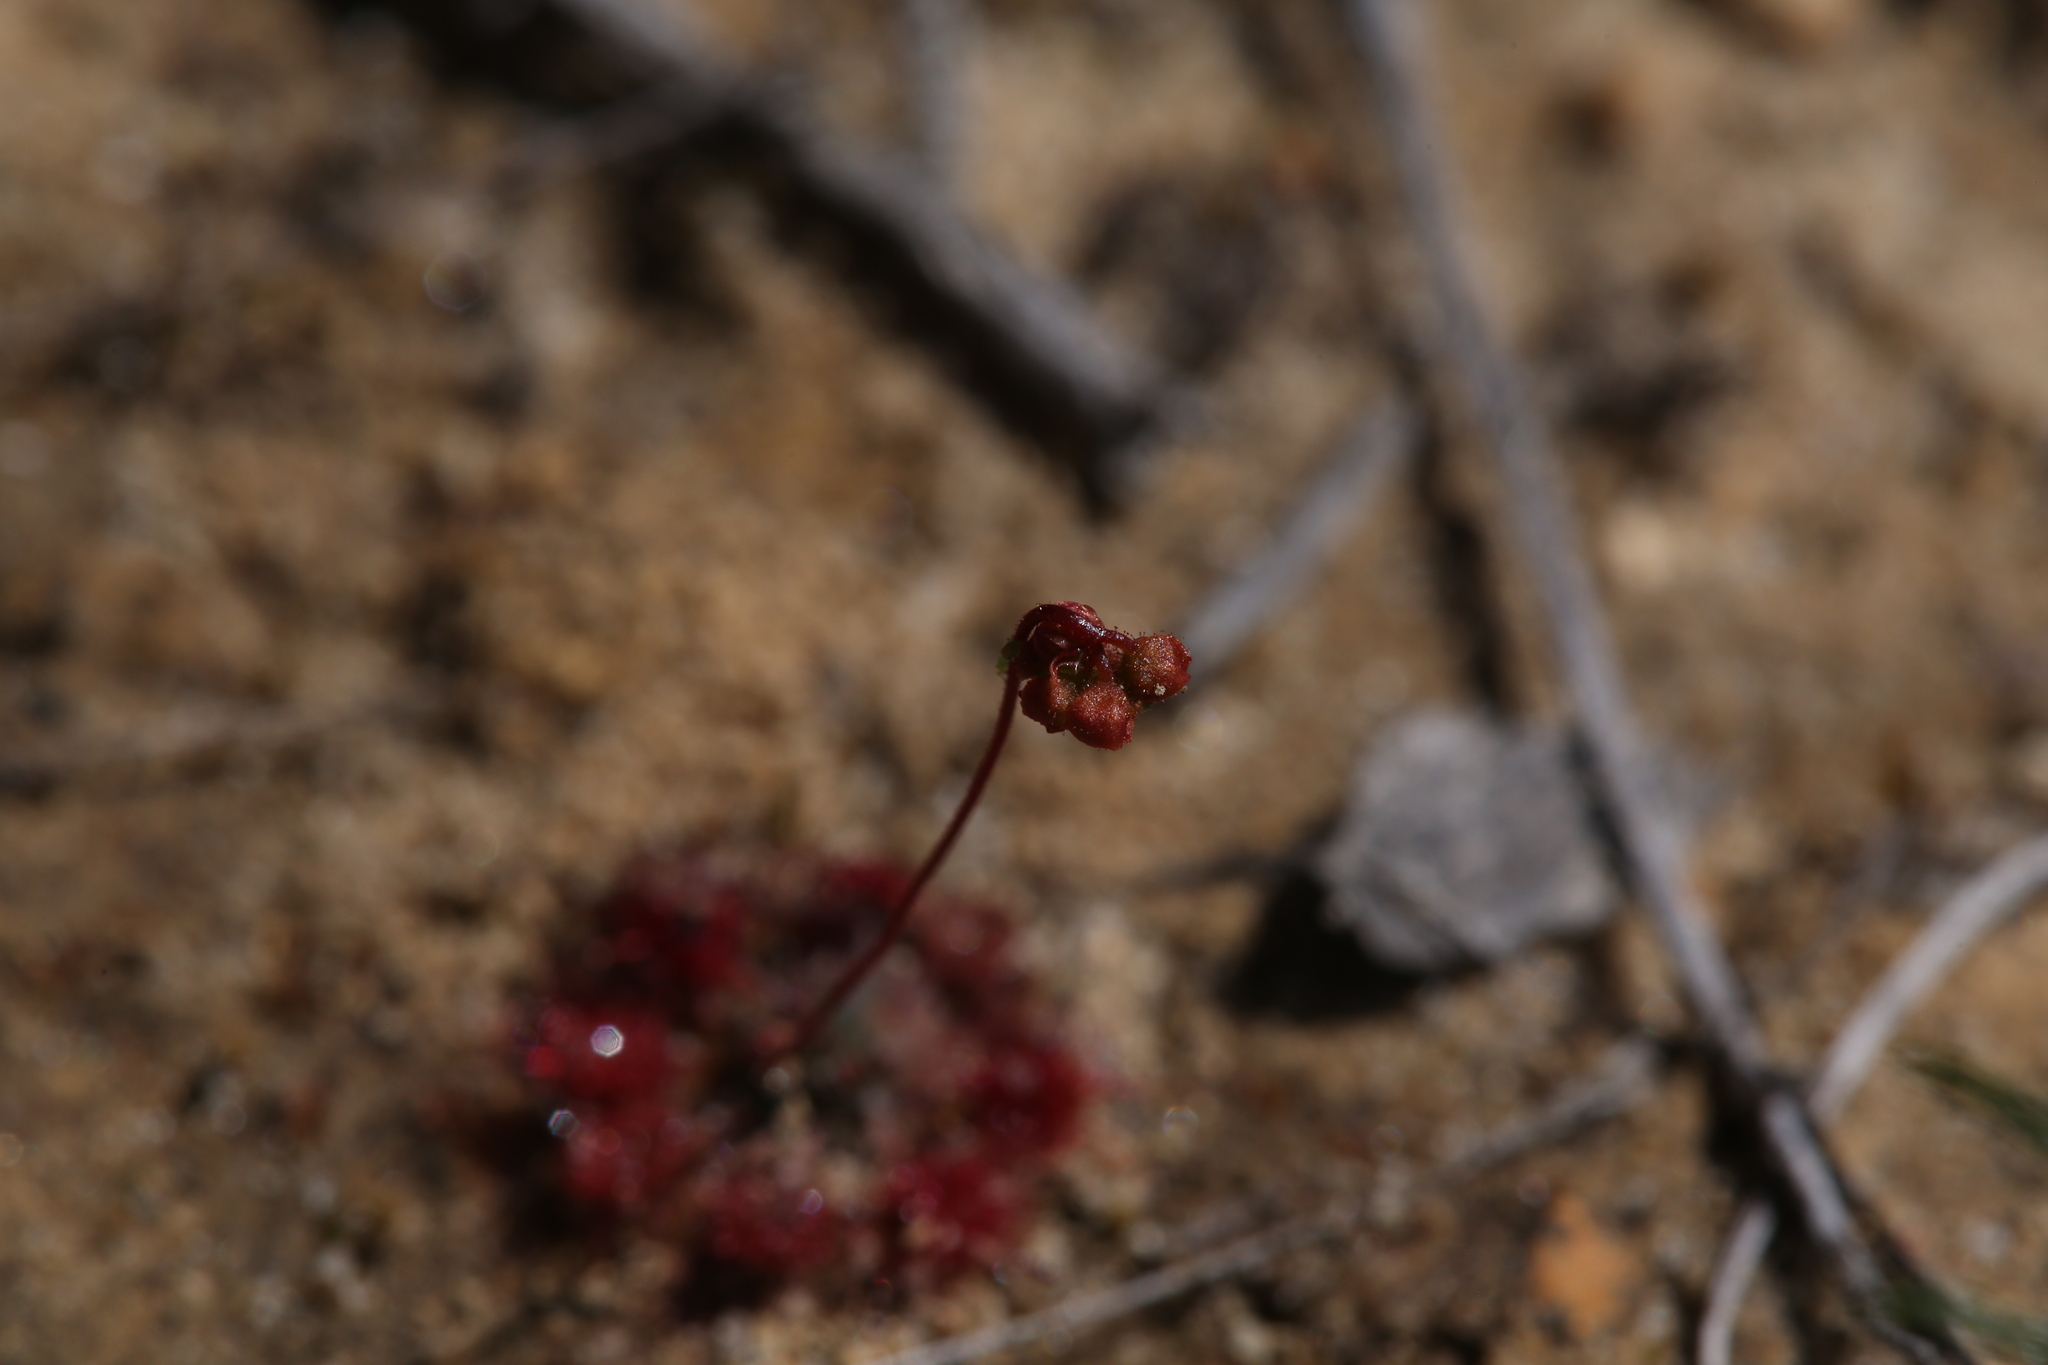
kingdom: Plantae
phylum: Tracheophyta
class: Magnoliopsida
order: Caryophyllales
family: Droseraceae
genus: Drosera
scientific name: Drosera spilos
